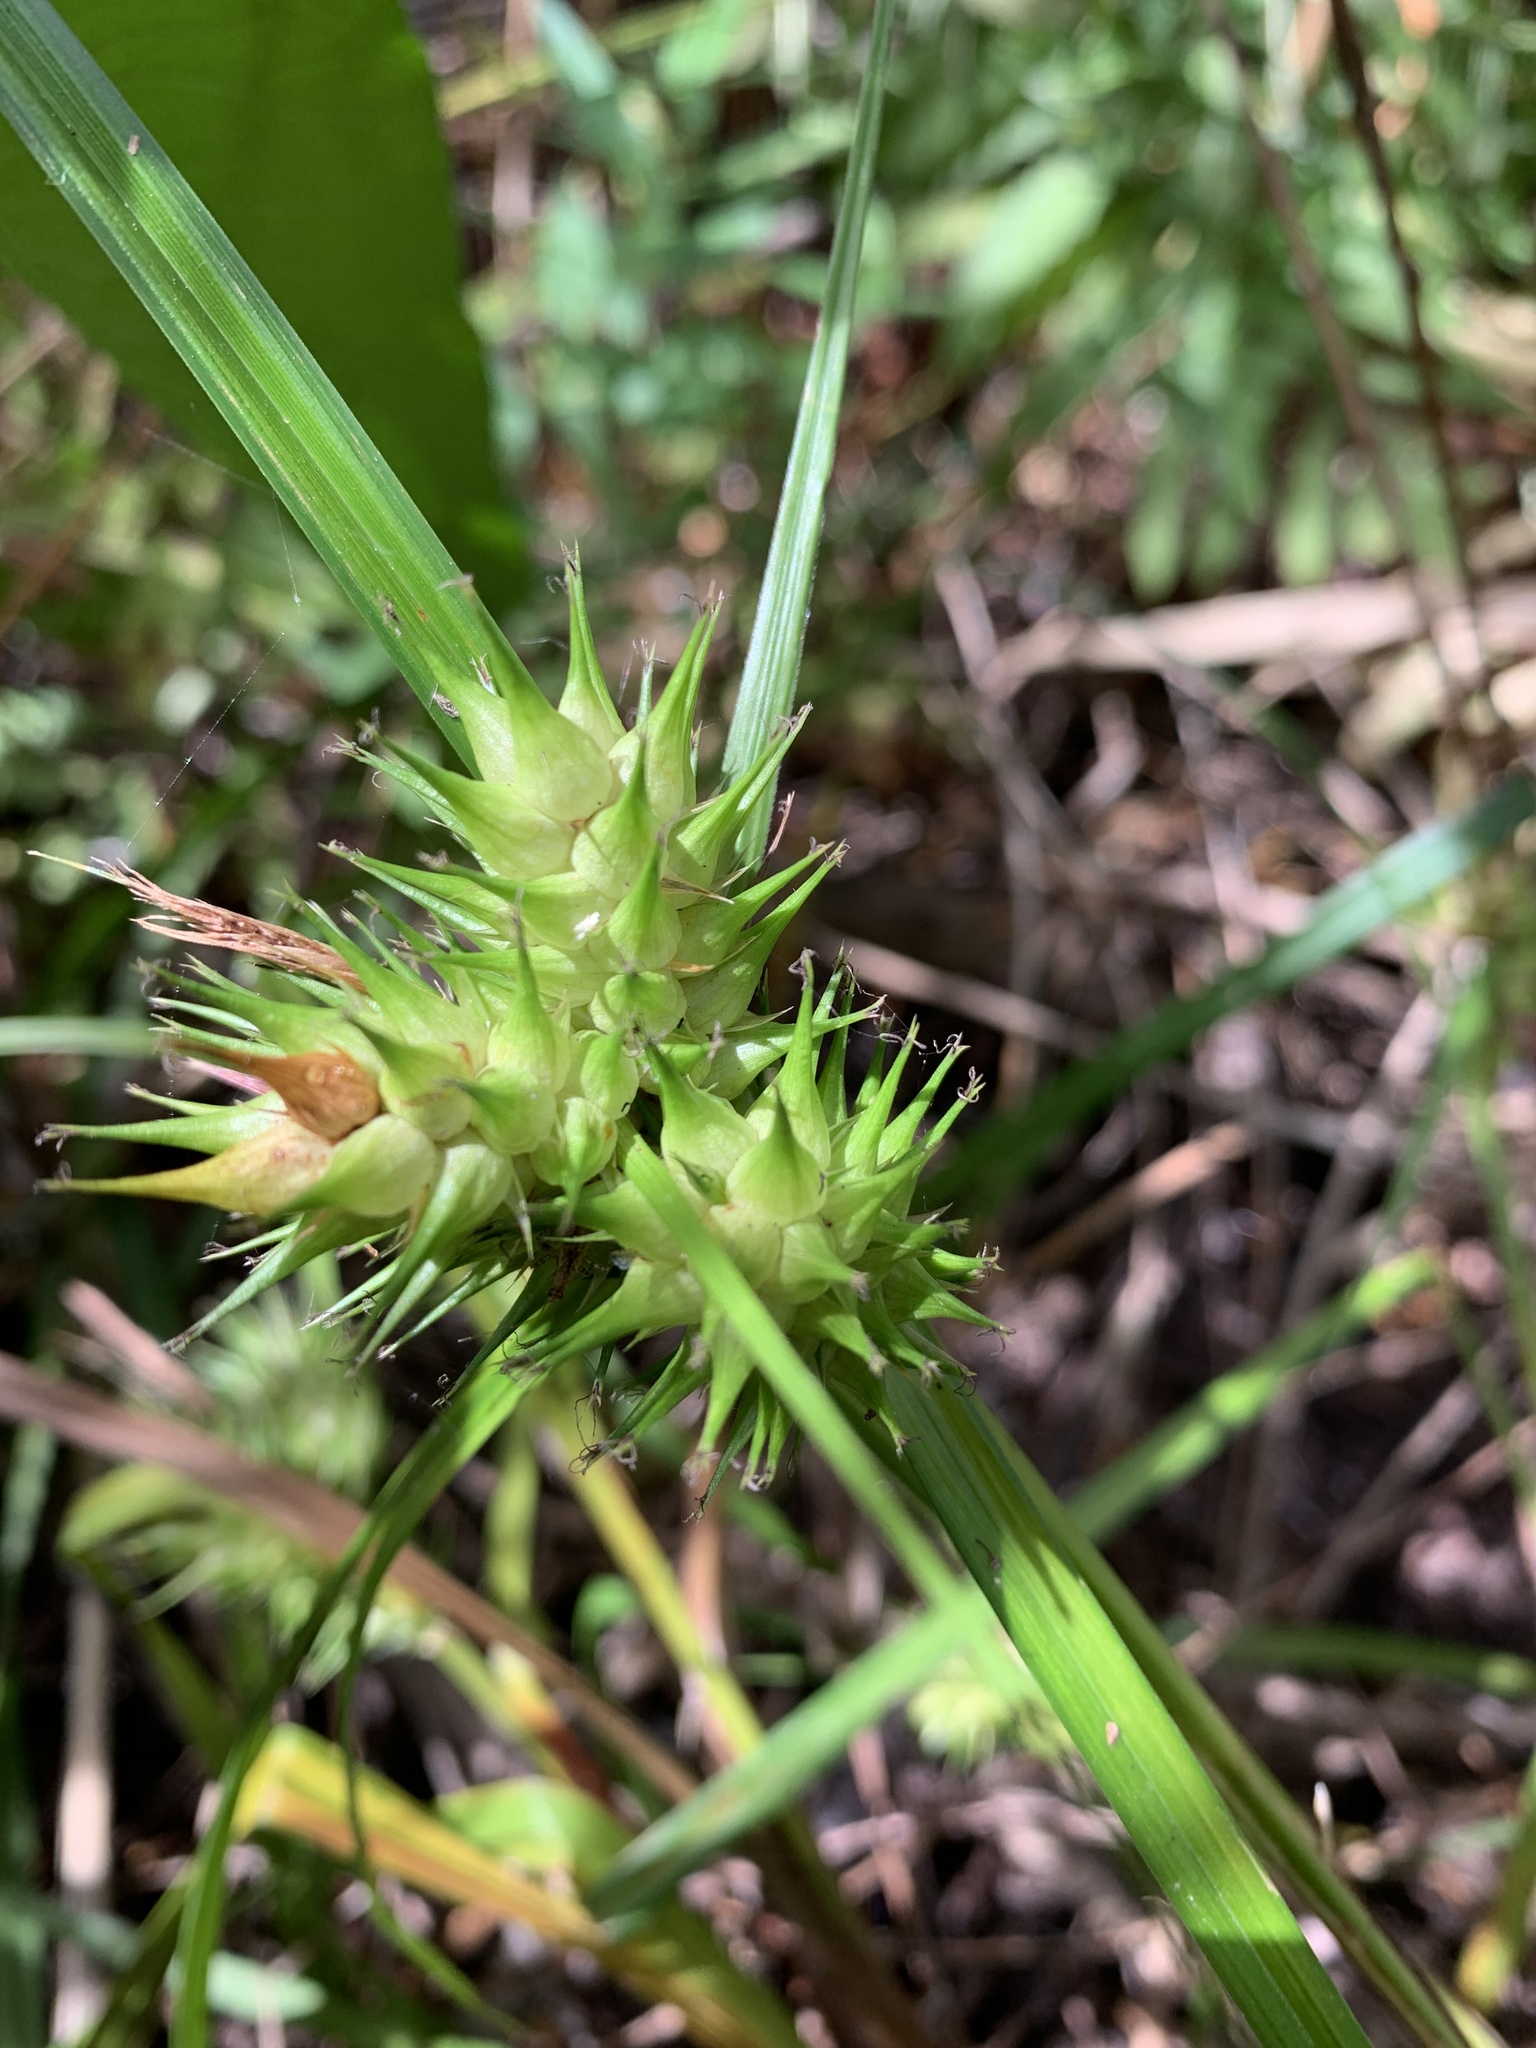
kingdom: Plantae
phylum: Tracheophyta
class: Liliopsida
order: Poales
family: Cyperaceae
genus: Carex
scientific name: Carex lupulina
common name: Hop sedge
